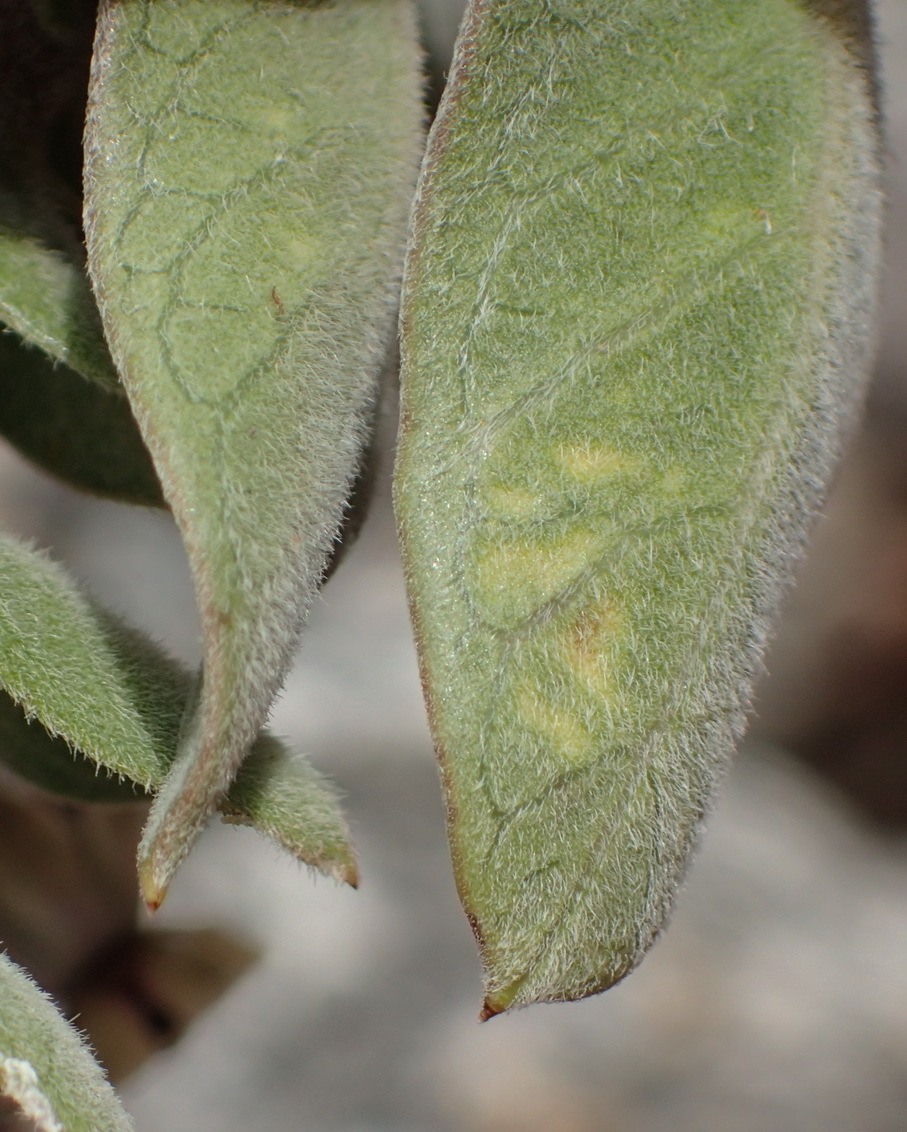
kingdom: Plantae
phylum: Tracheophyta
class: Magnoliopsida
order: Gentianales
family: Apocynaceae
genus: Gomphocarpus
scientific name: Gomphocarpus cancellatus
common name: Wild cotton
